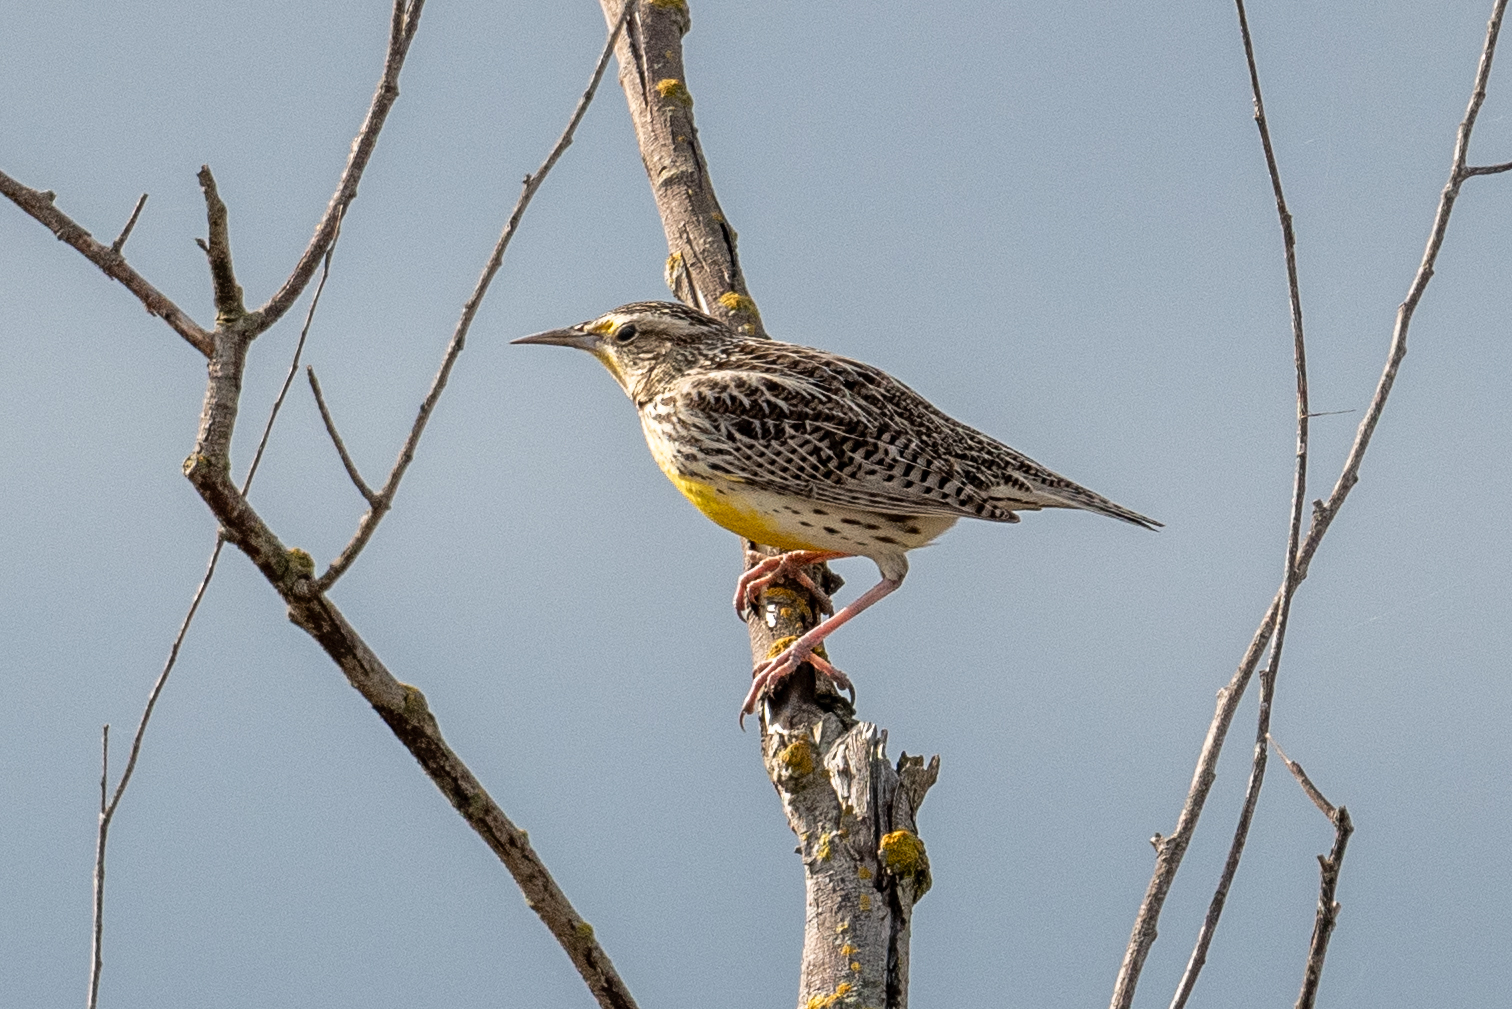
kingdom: Animalia
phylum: Chordata
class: Aves
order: Passeriformes
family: Icteridae
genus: Sturnella
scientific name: Sturnella neglecta
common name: Western meadowlark
